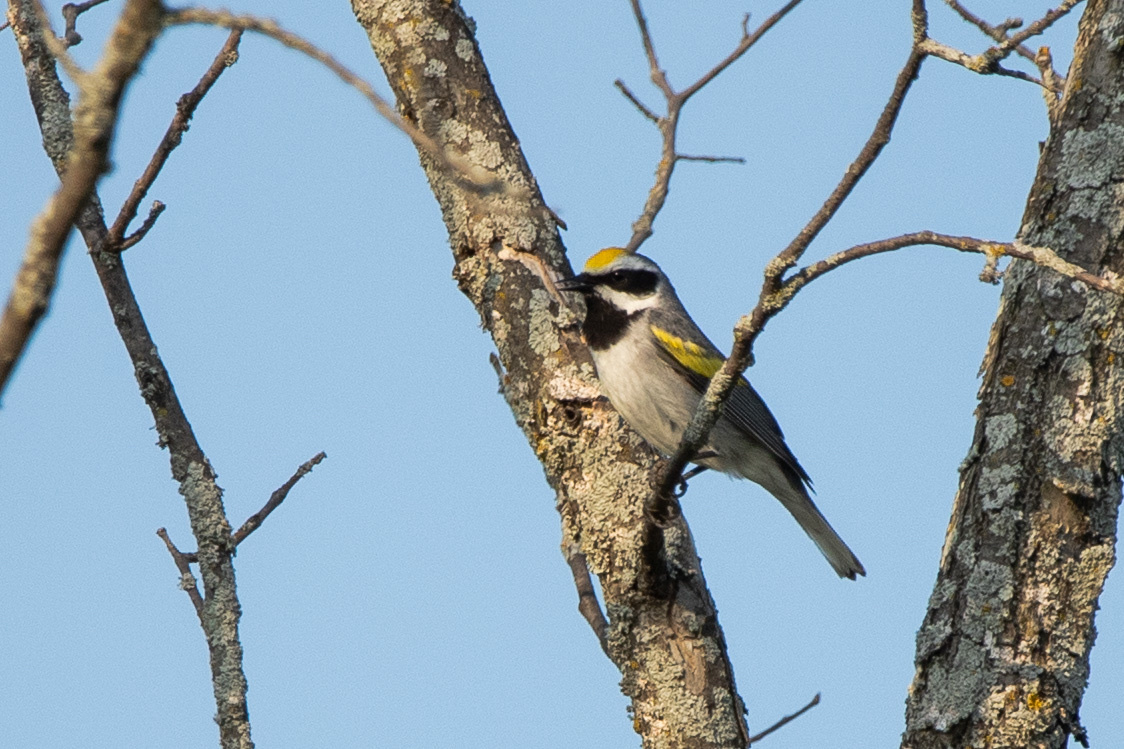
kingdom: Animalia
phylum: Chordata
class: Aves
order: Passeriformes
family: Parulidae
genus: Vermivora
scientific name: Vermivora chrysoptera
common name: Golden-winged warbler
